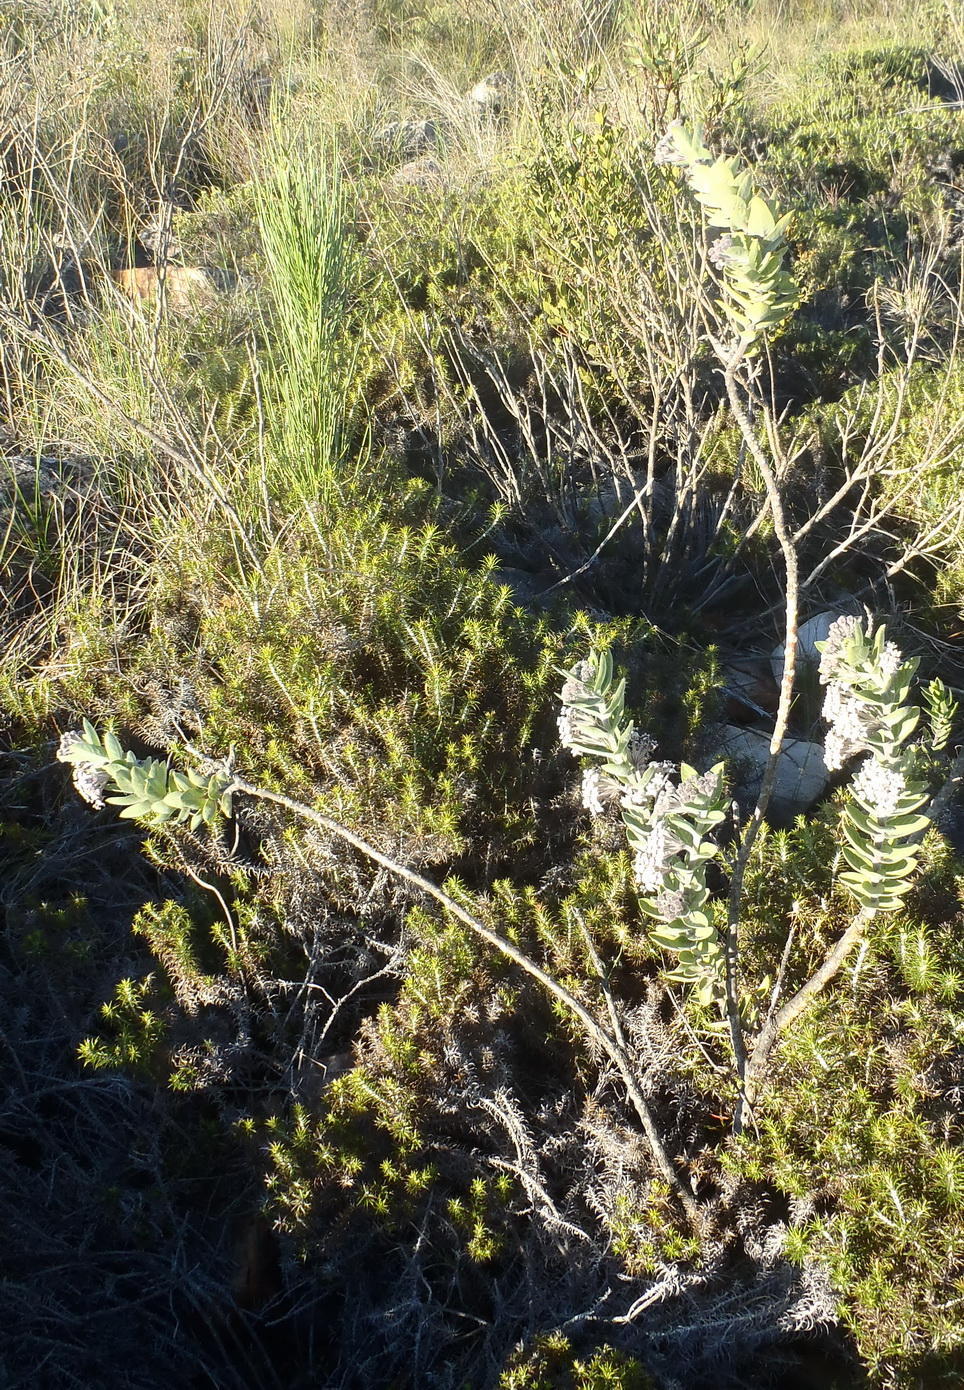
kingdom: Plantae
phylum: Tracheophyta
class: Magnoliopsida
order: Gentianales
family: Apocynaceae
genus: Gomphocarpus
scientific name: Gomphocarpus cancellatus
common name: Wild cotton
